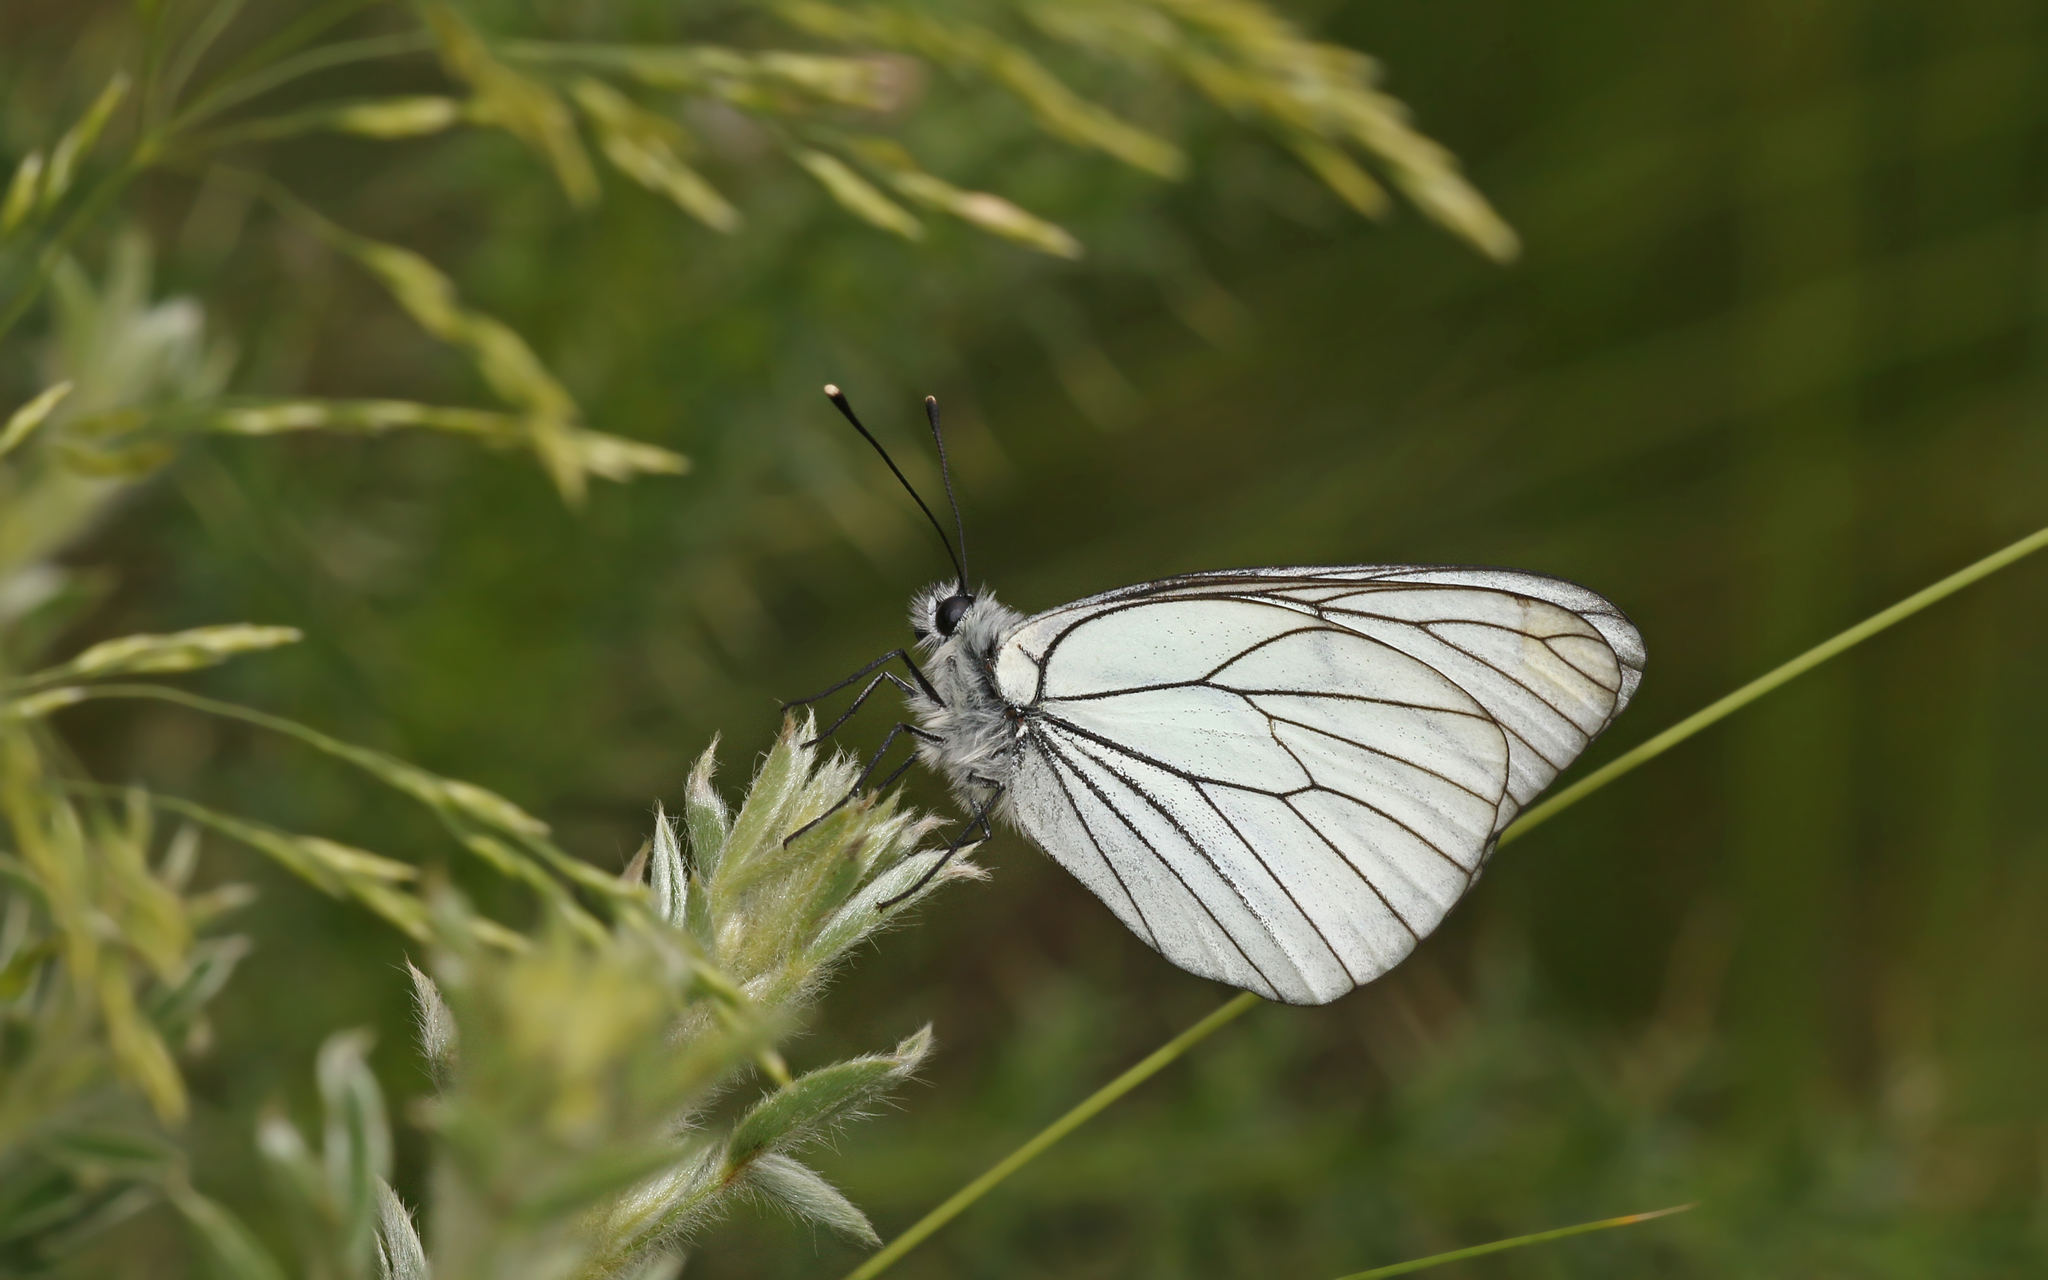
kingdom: Animalia
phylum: Arthropoda
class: Insecta
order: Lepidoptera
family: Pieridae
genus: Aporia
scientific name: Aporia crataegi
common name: Black-veined white
